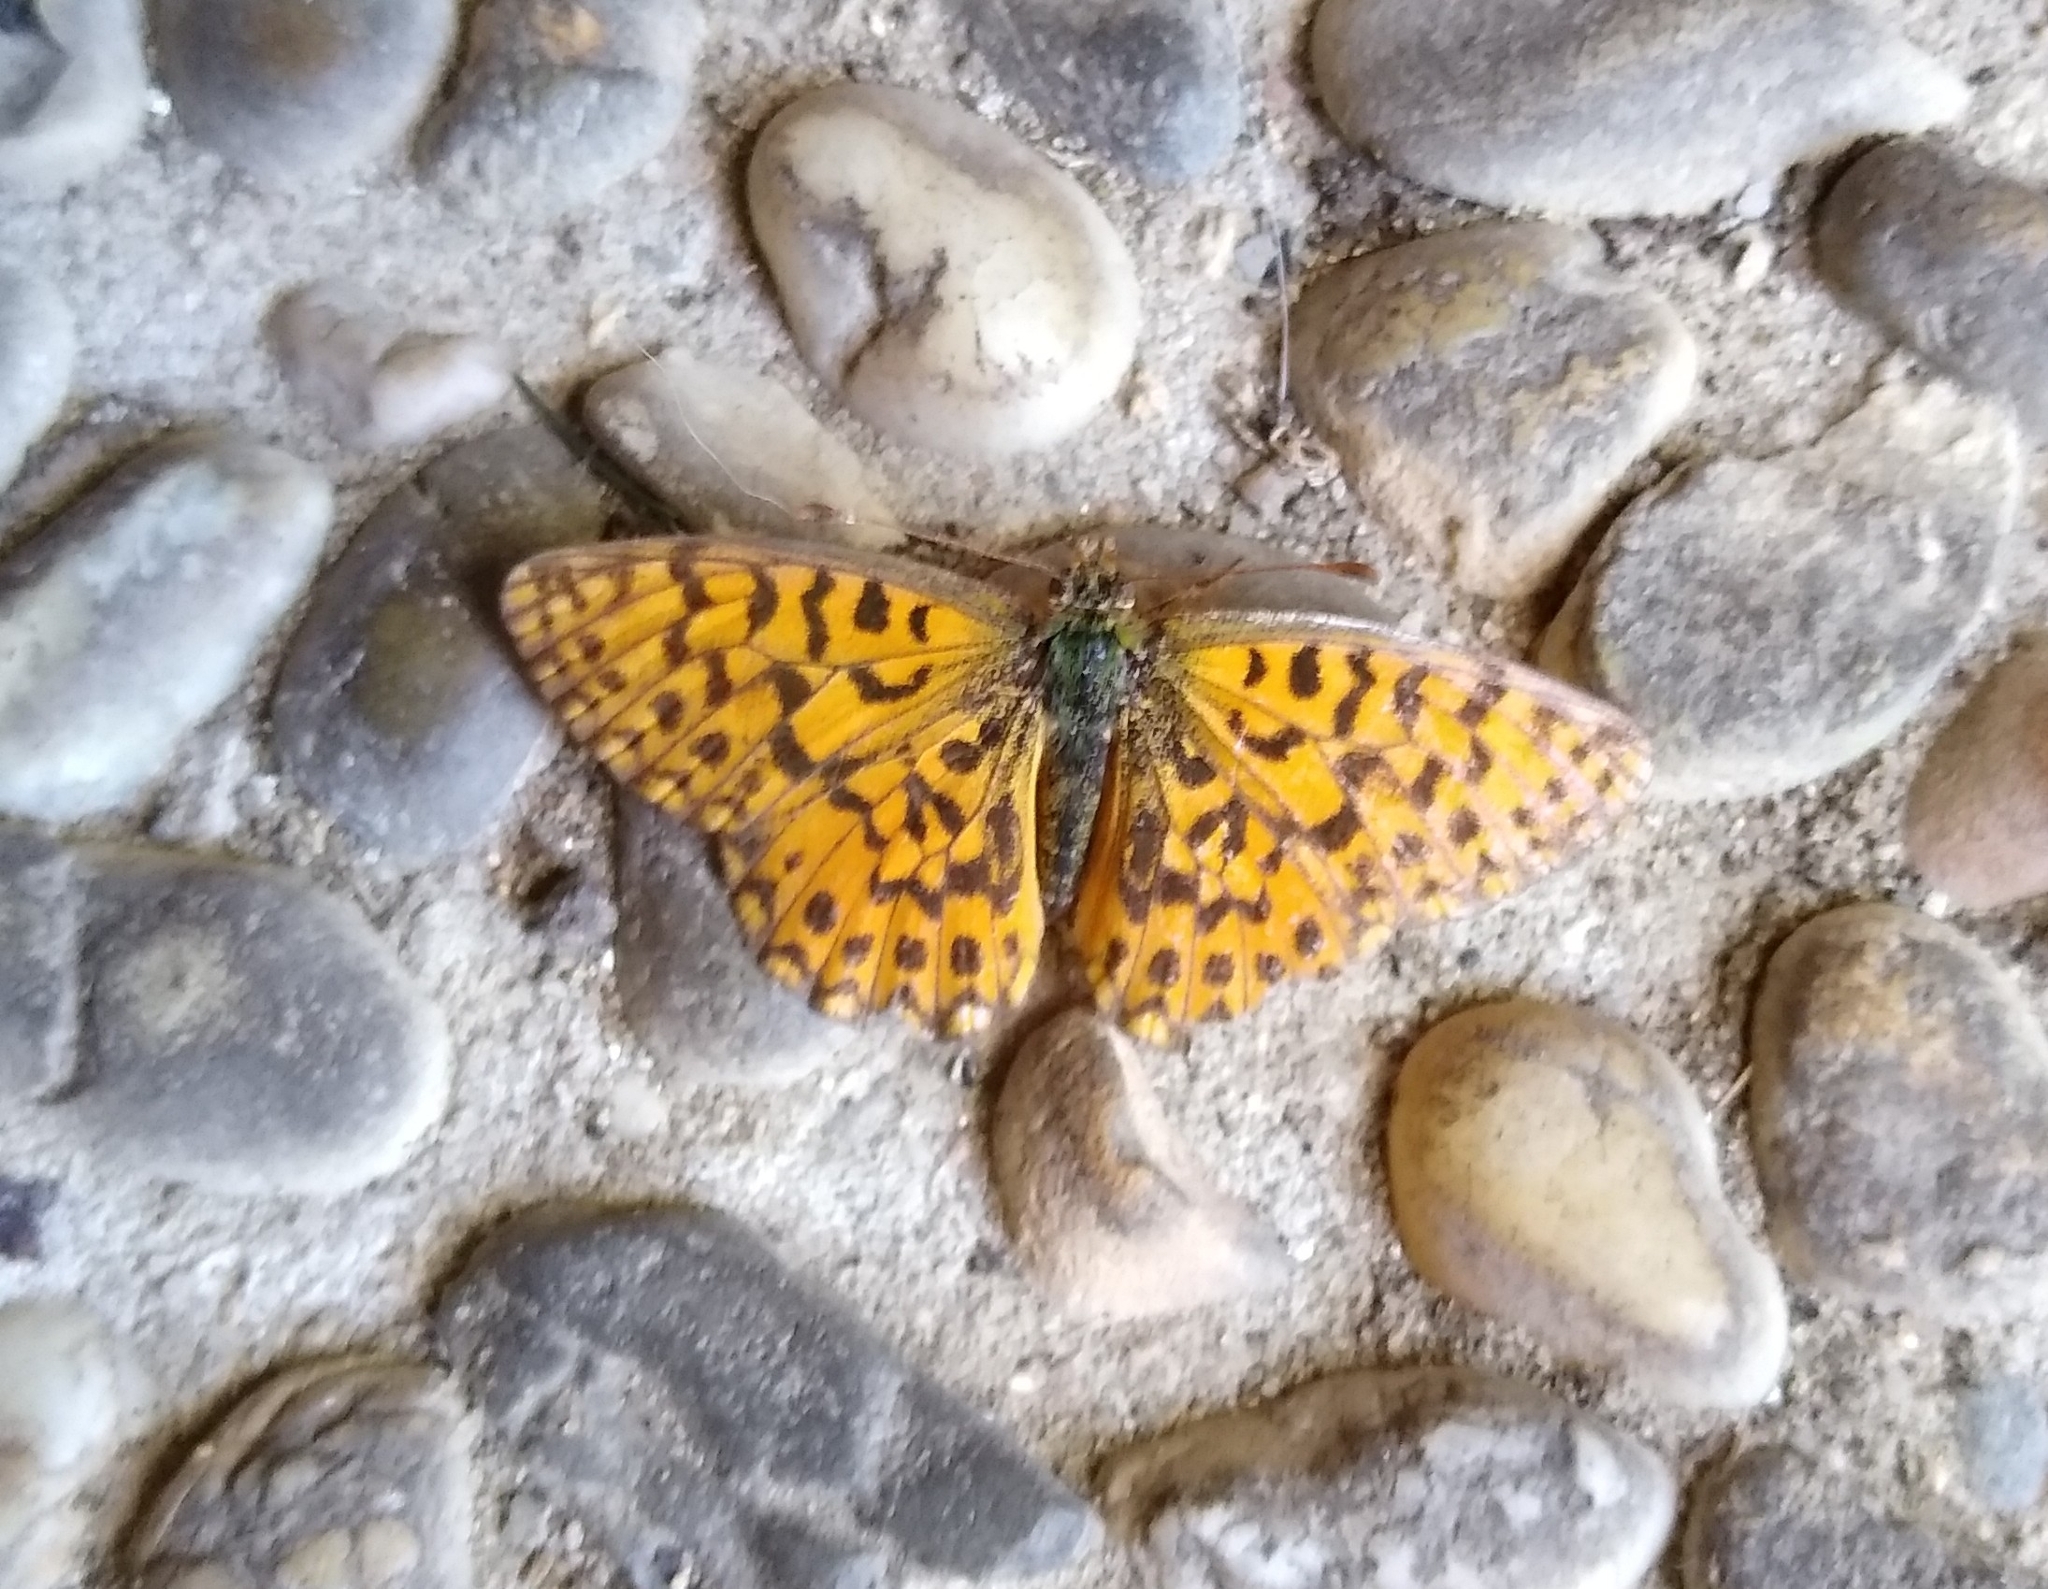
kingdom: Animalia
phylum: Arthropoda
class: Insecta
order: Lepidoptera
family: Nymphalidae
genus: Boloria
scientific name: Boloria dia
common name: Weaver's fritillary
